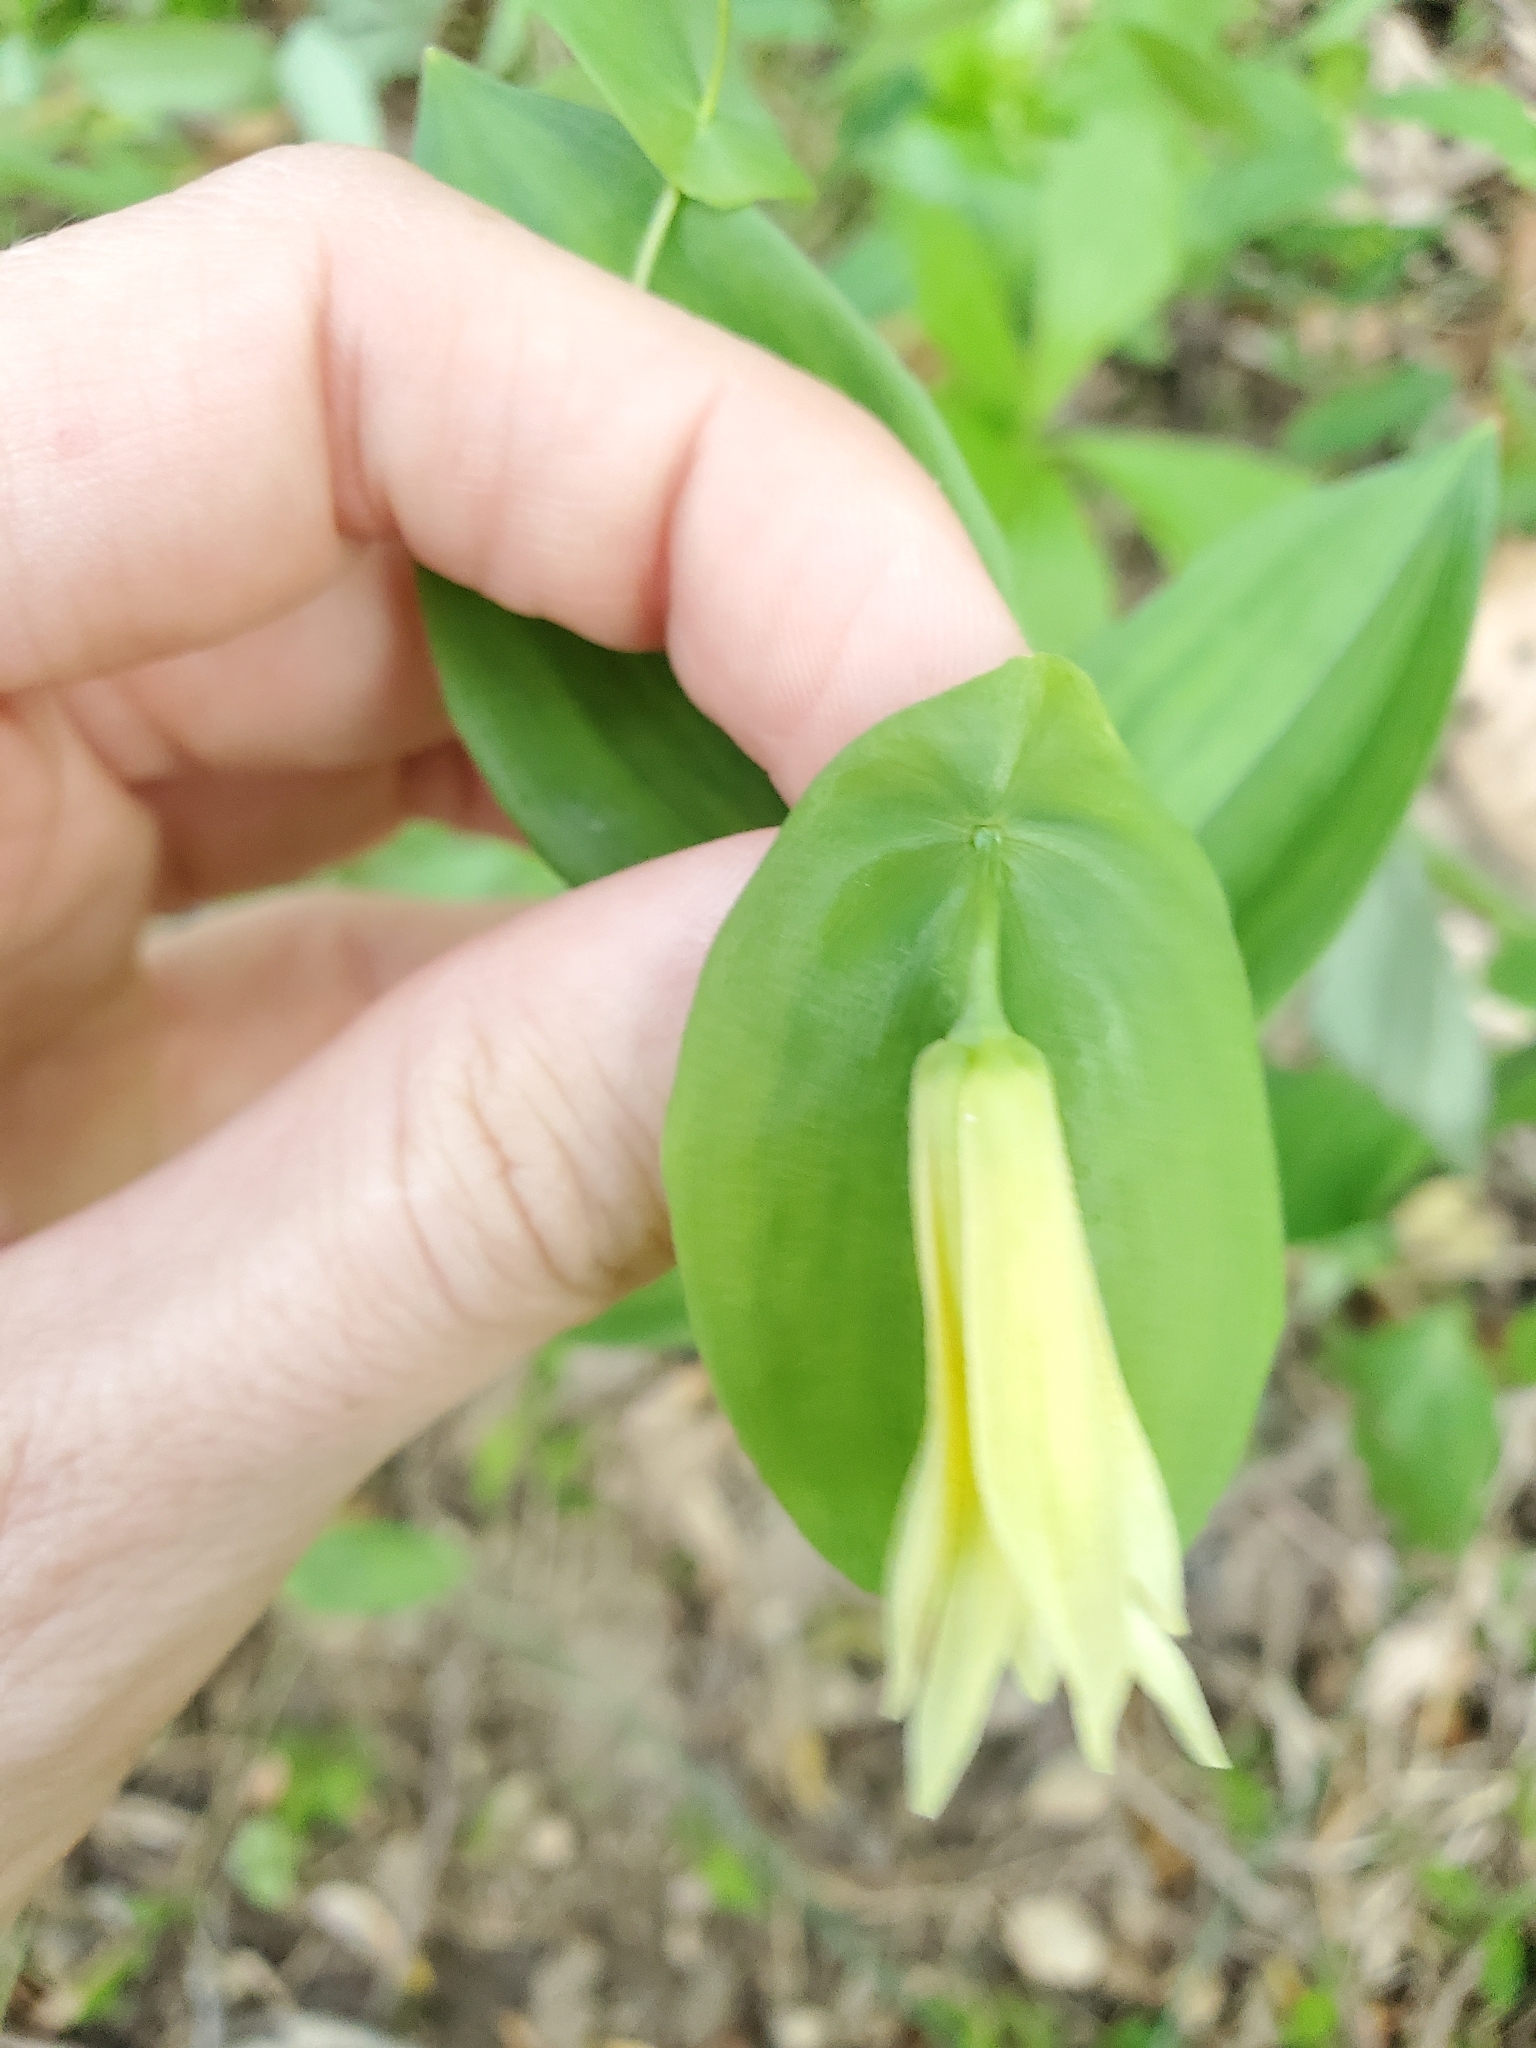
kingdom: Plantae
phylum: Tracheophyta
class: Liliopsida
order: Liliales
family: Colchicaceae
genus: Uvularia
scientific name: Uvularia perfoliata
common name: Perfoliate bellwort
